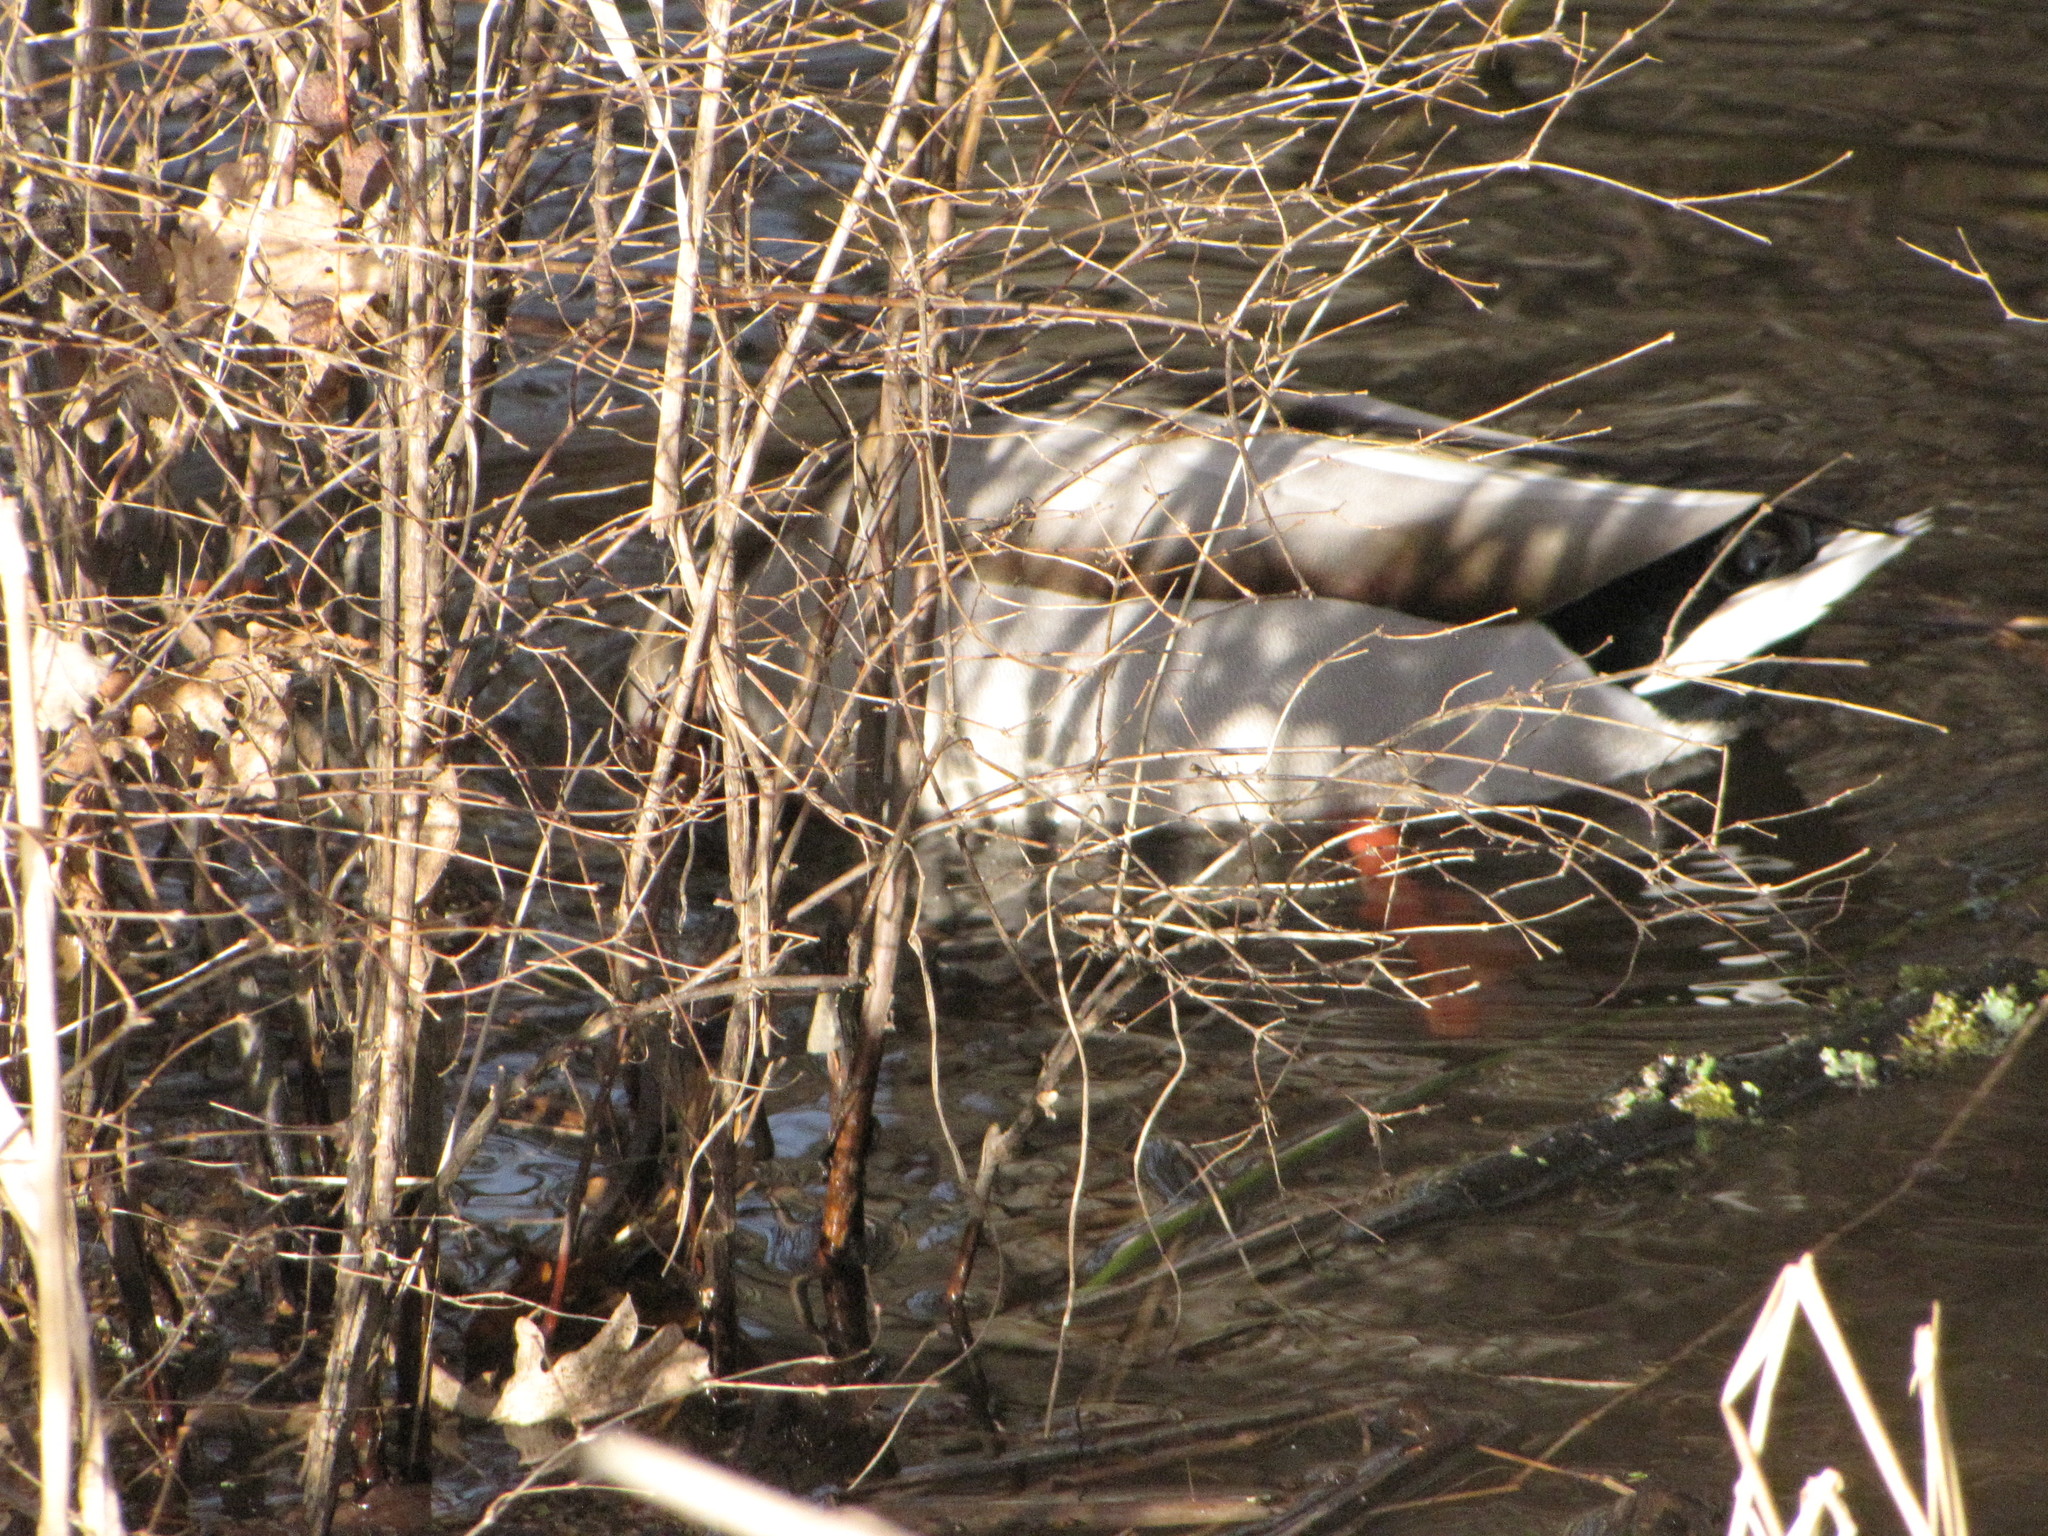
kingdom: Animalia
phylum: Chordata
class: Aves
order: Anseriformes
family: Anatidae
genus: Anas
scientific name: Anas platyrhynchos
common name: Mallard
